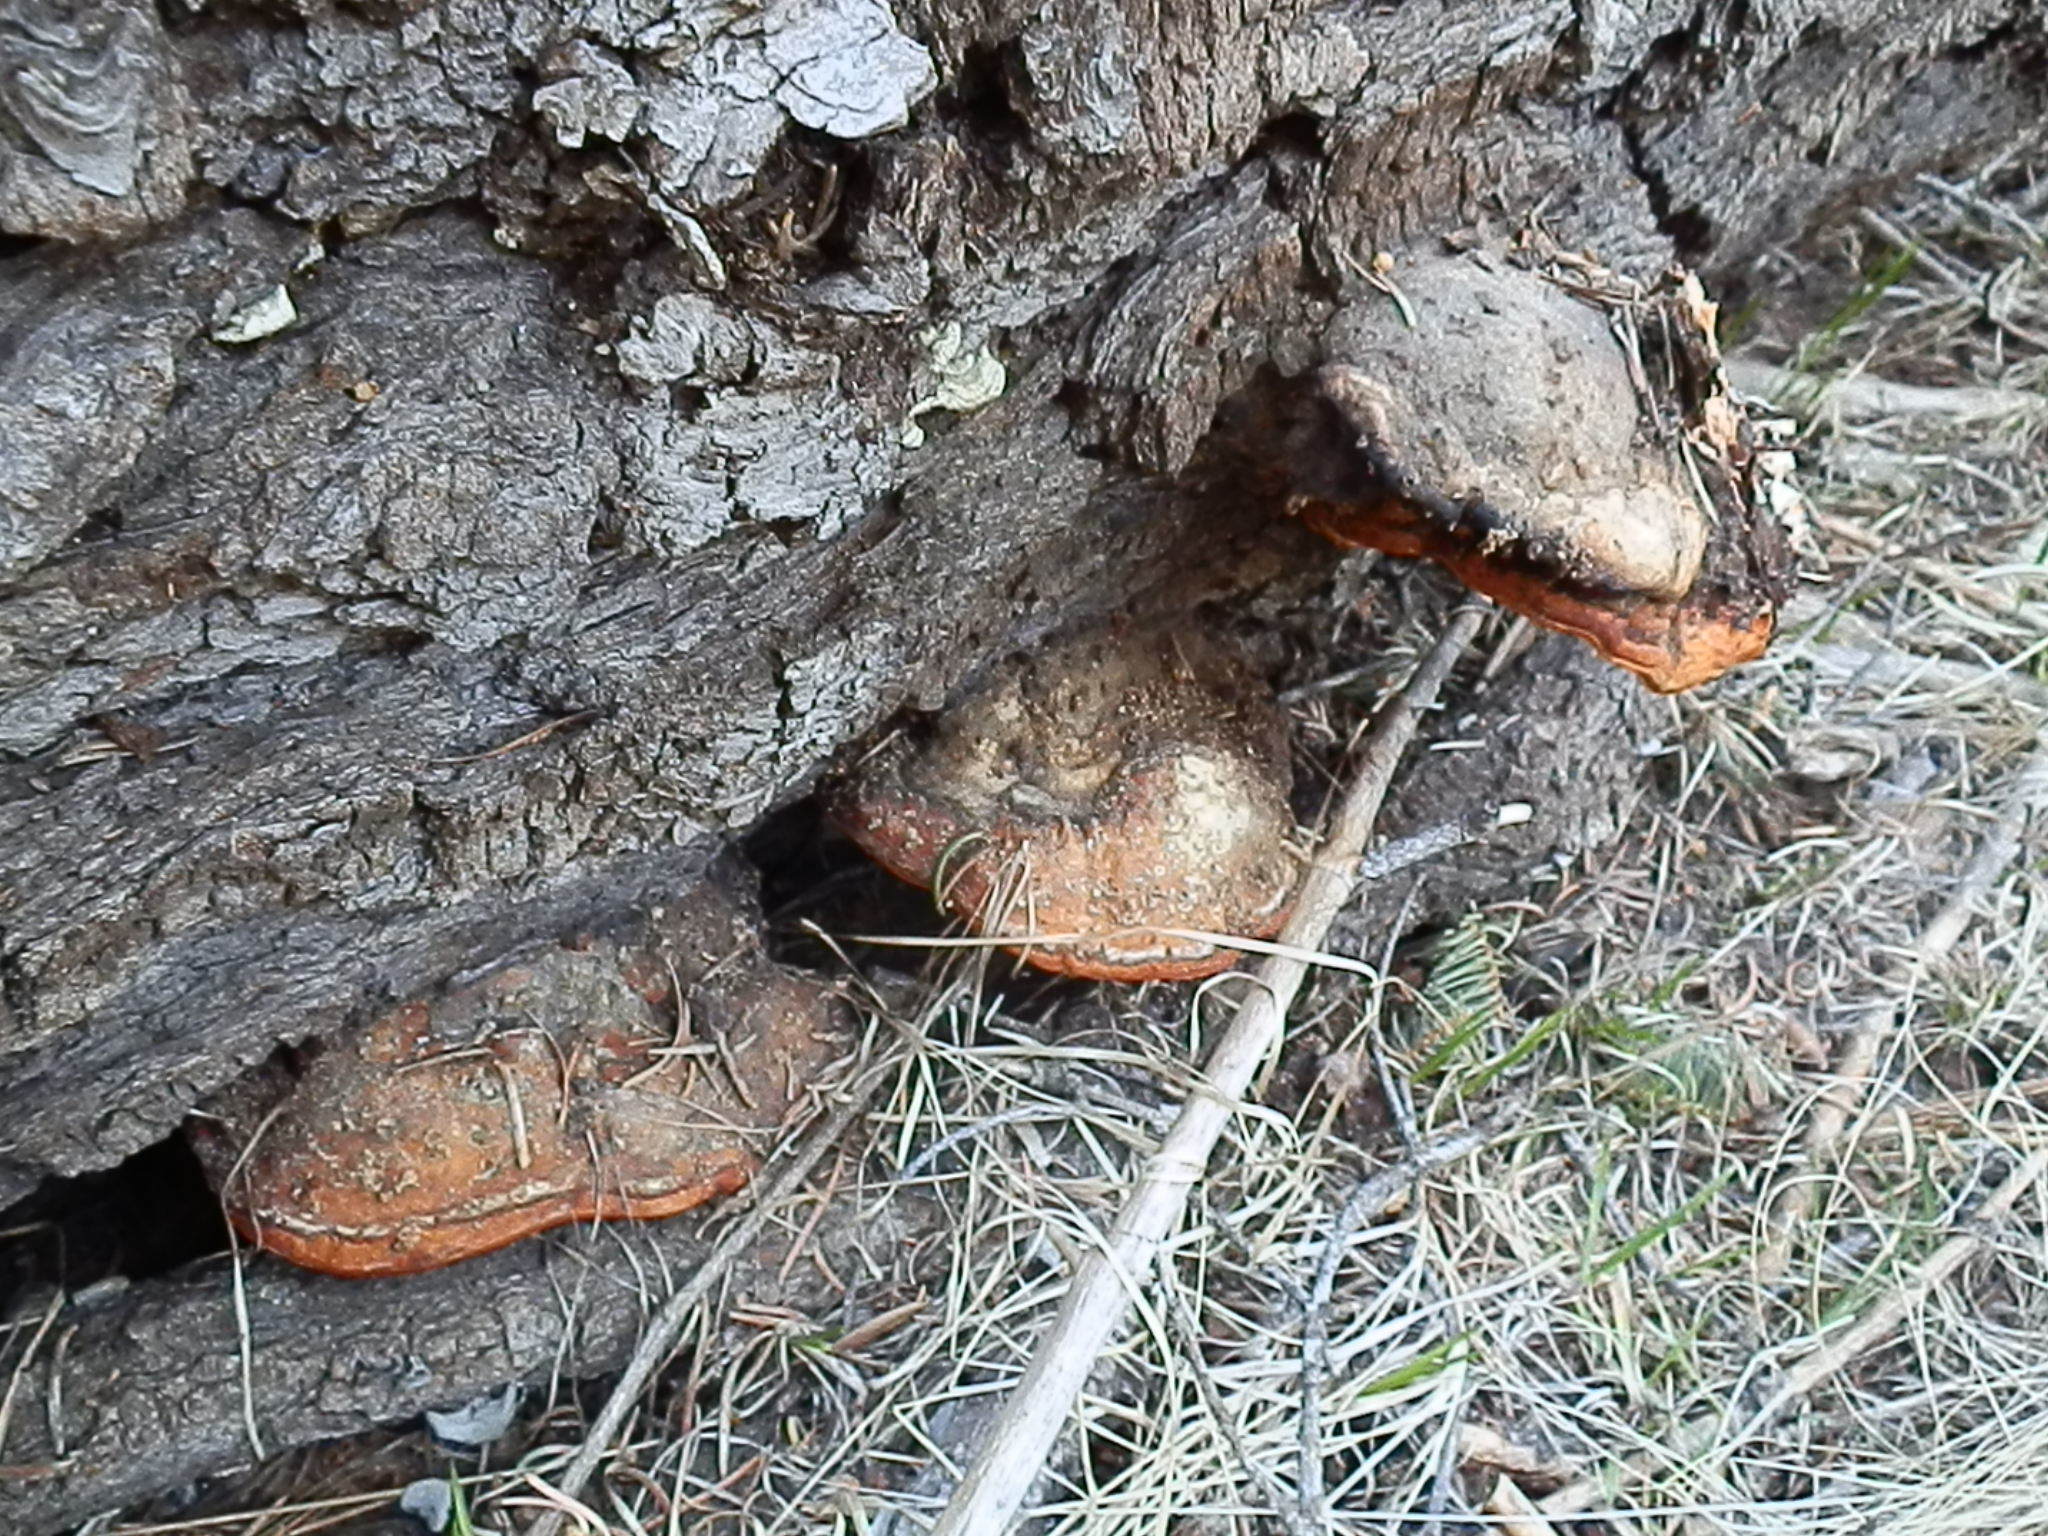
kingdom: Fungi
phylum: Basidiomycota
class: Agaricomycetes
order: Polyporales
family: Fomitopsidaceae
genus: Fomitopsis
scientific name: Fomitopsis schrenkii
